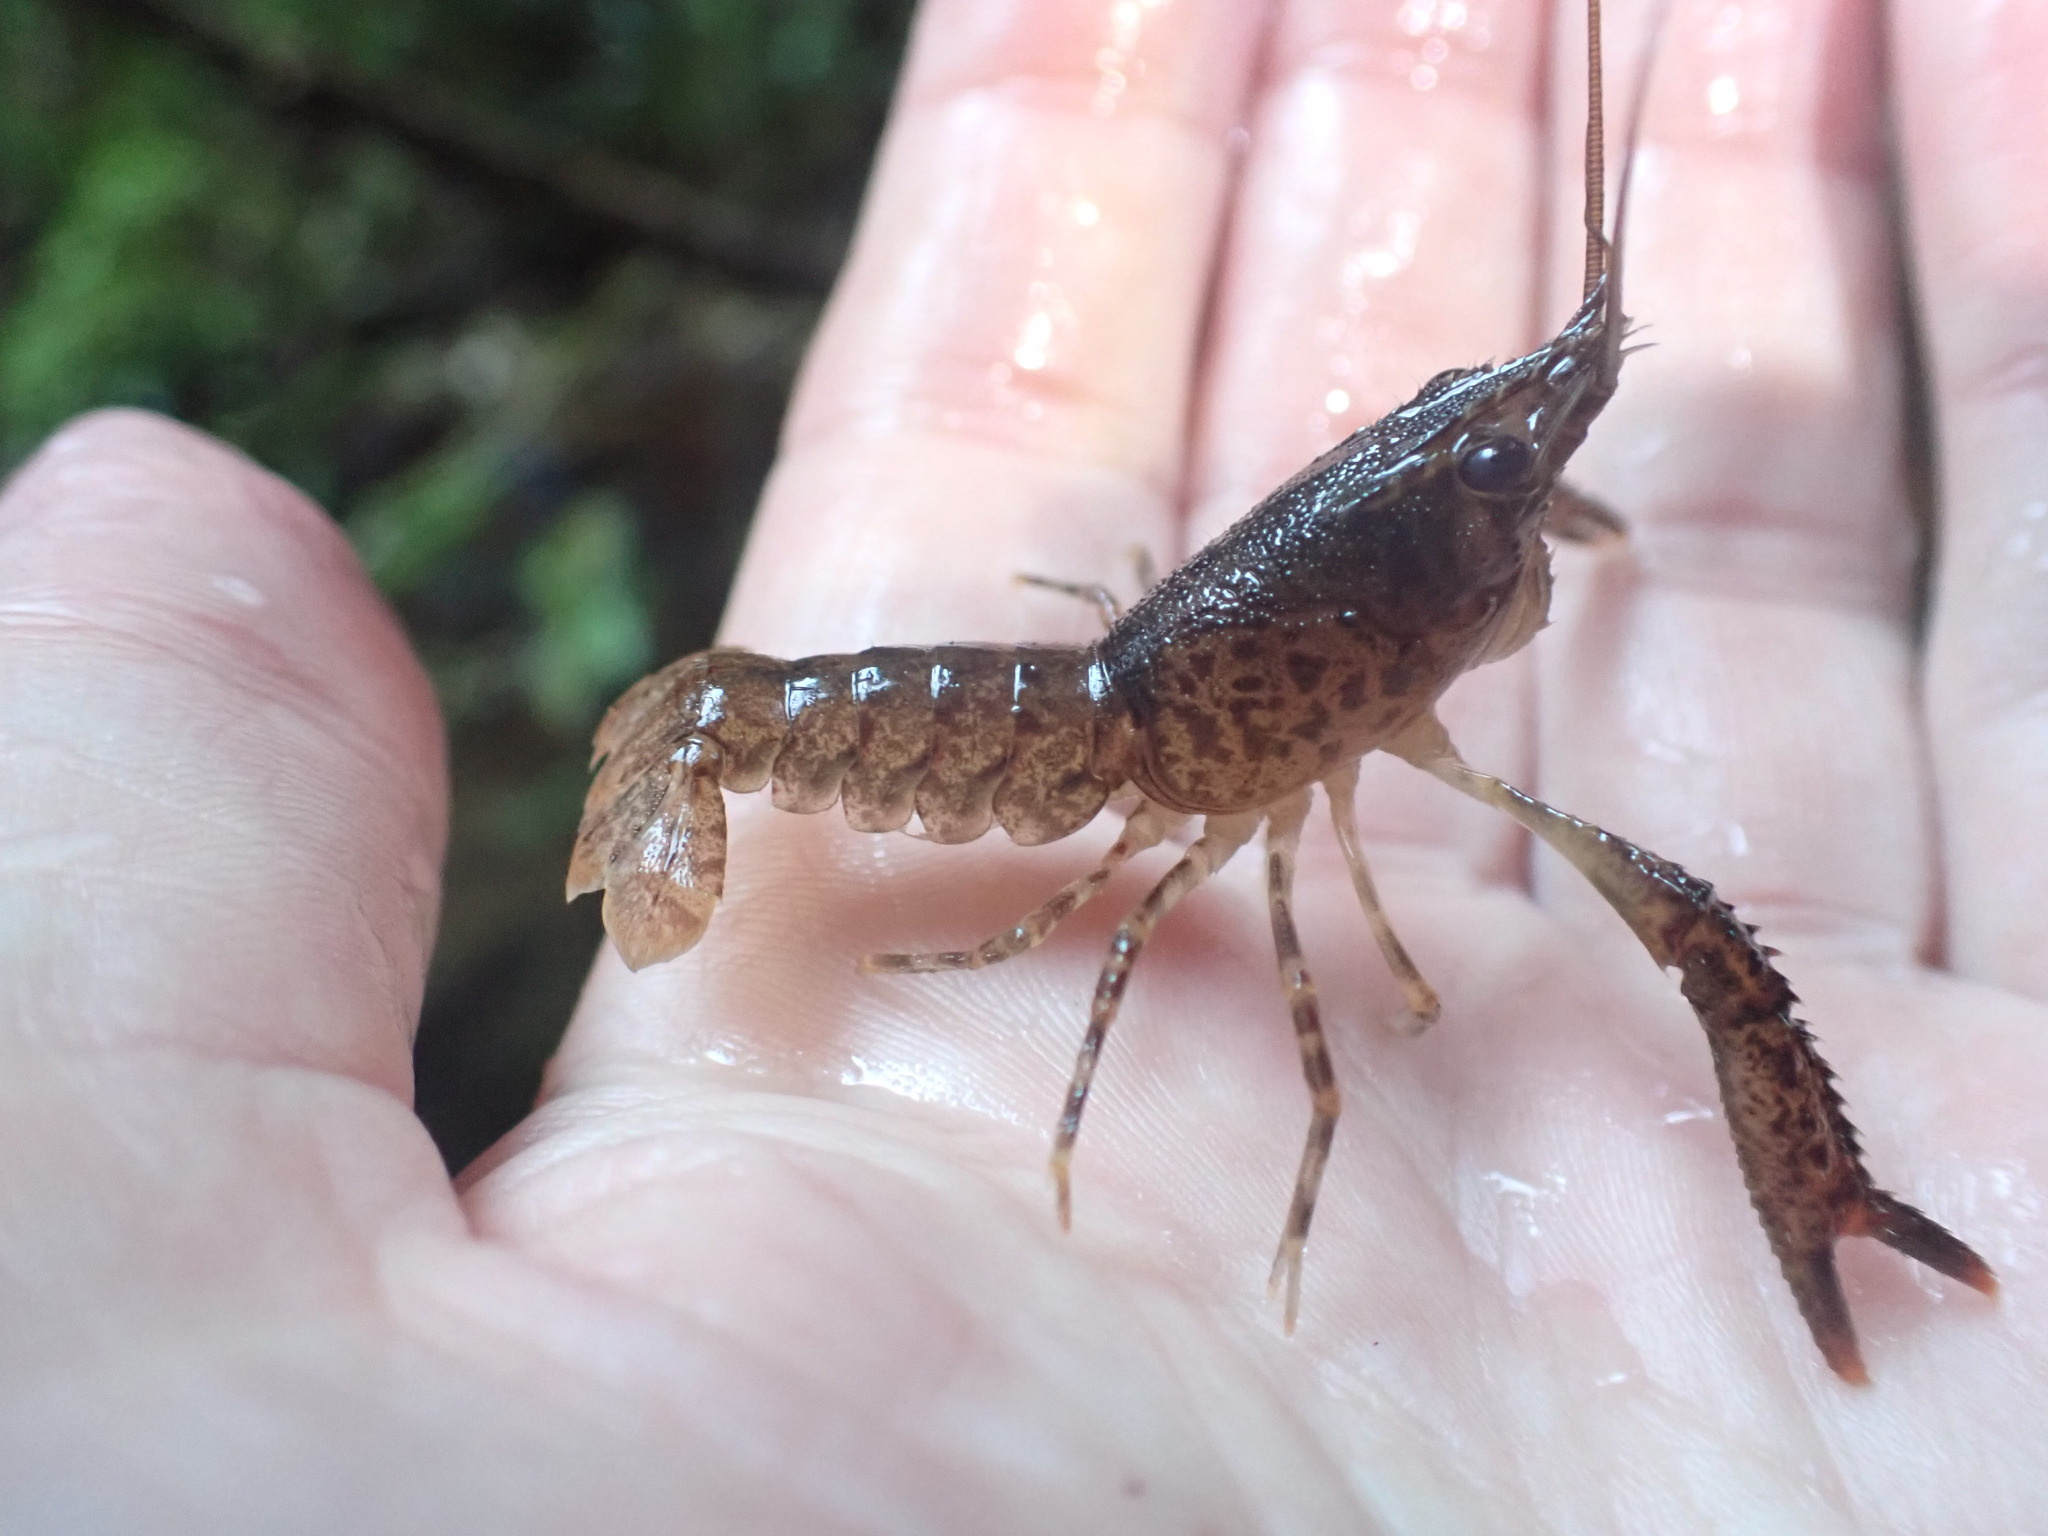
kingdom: Animalia
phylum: Arthropoda
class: Malacostraca
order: Decapoda
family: Parastacidae
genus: Paranephrops
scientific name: Paranephrops planifrons
